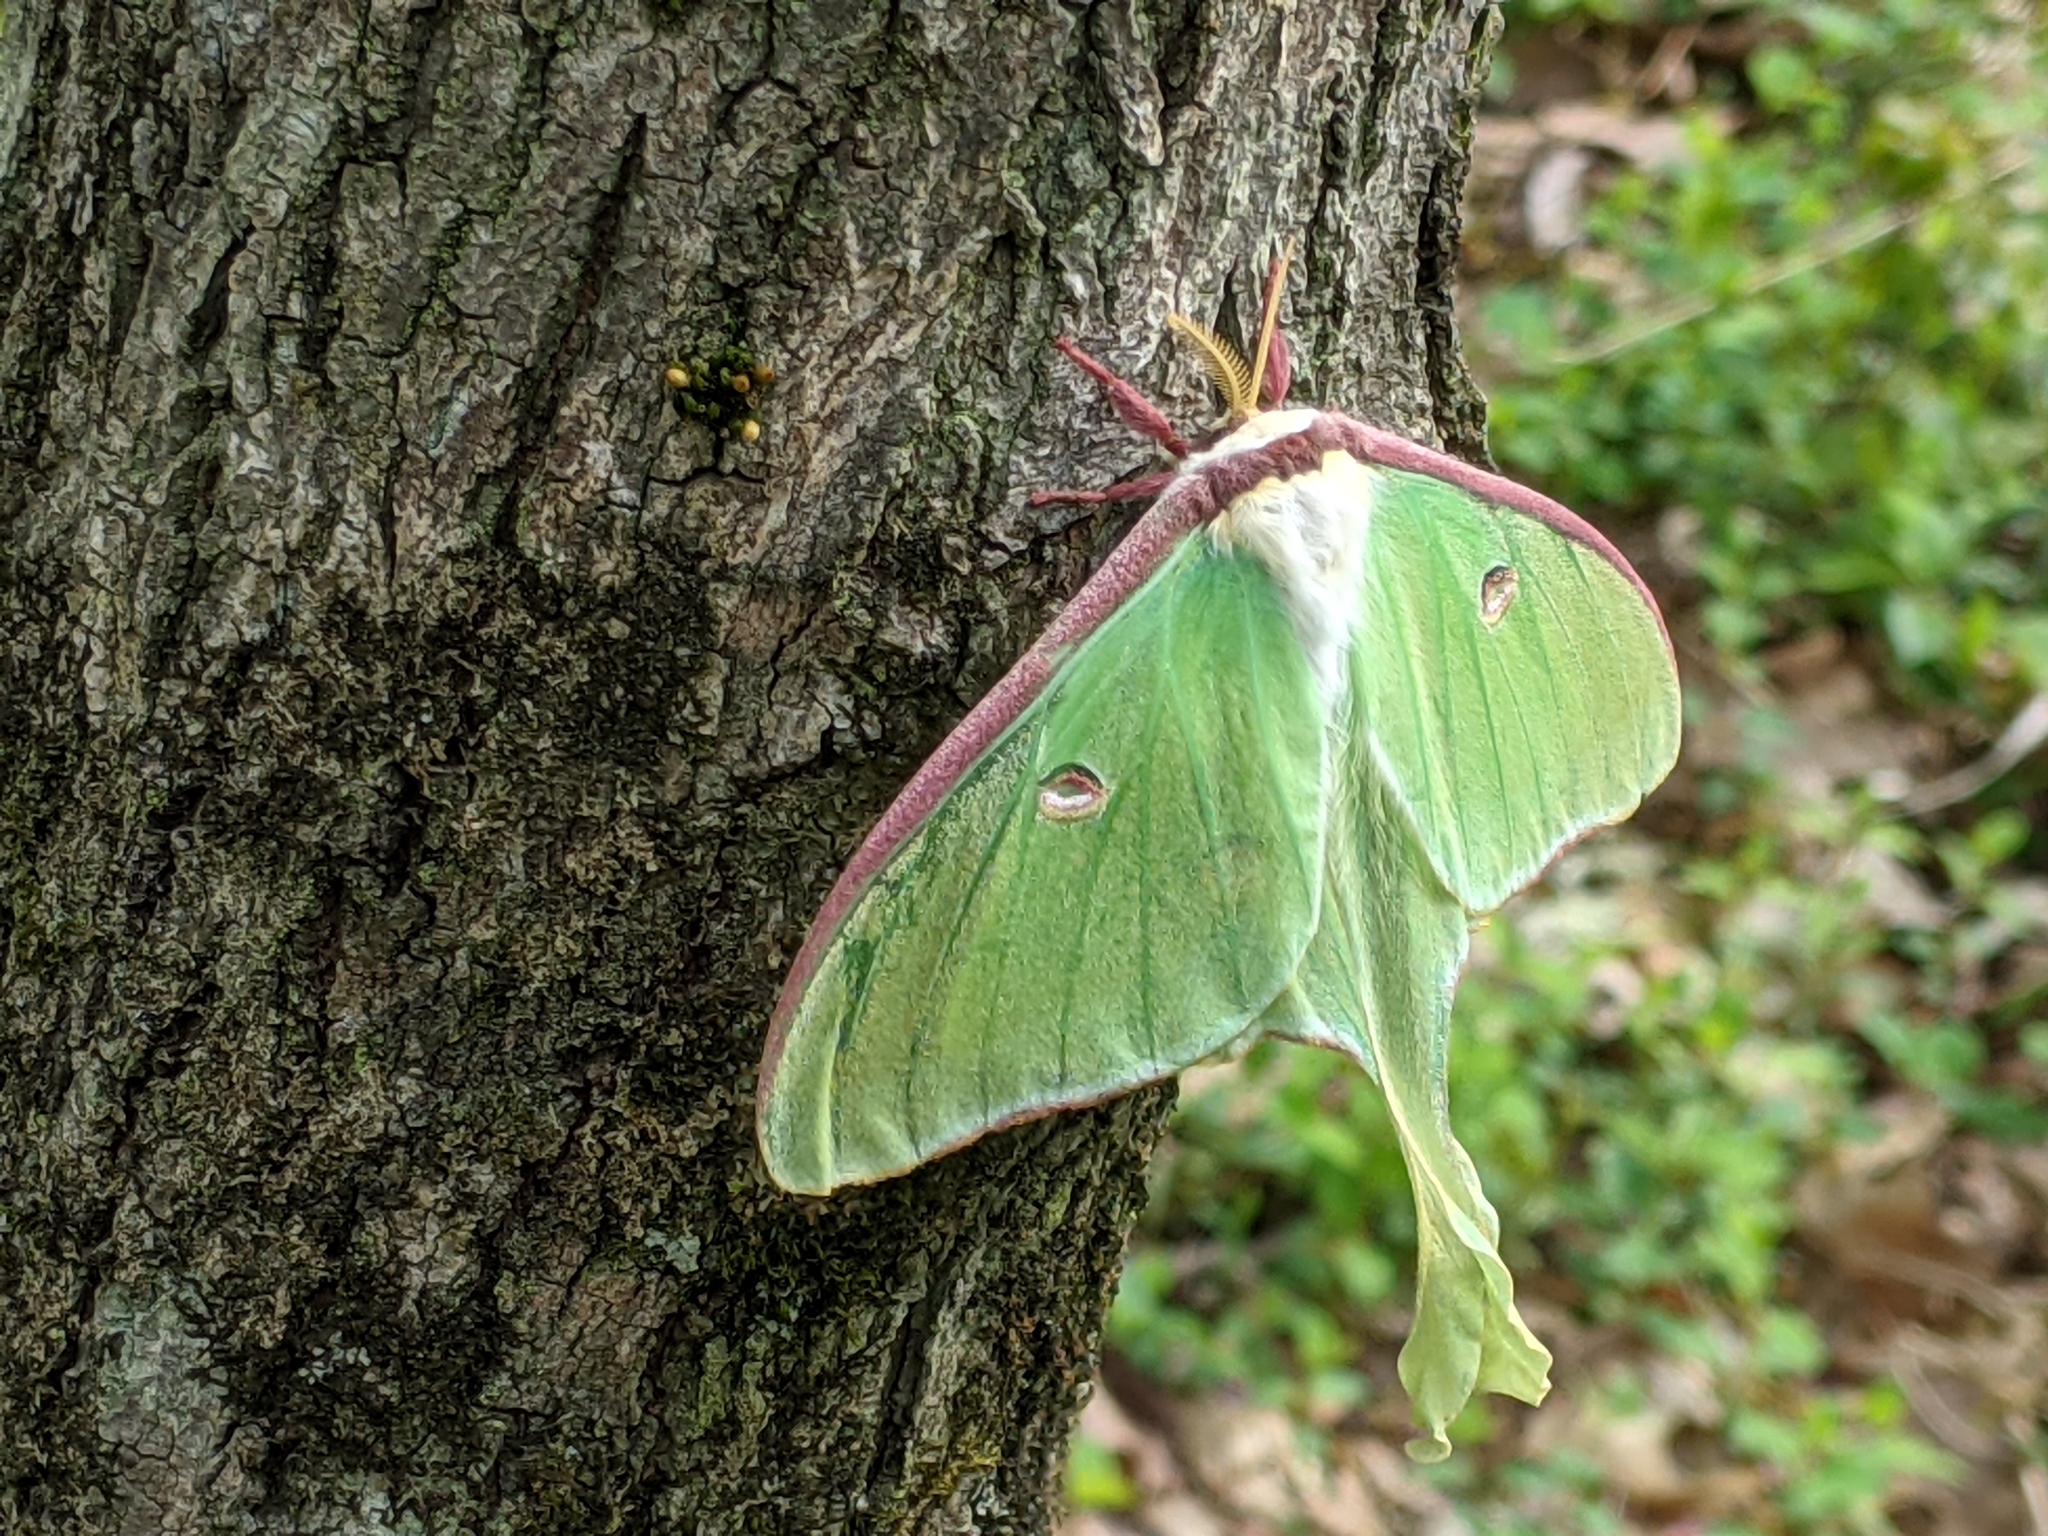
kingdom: Animalia
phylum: Arthropoda
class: Insecta
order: Lepidoptera
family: Saturniidae
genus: Actias
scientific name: Actias luna
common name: Luna moth
